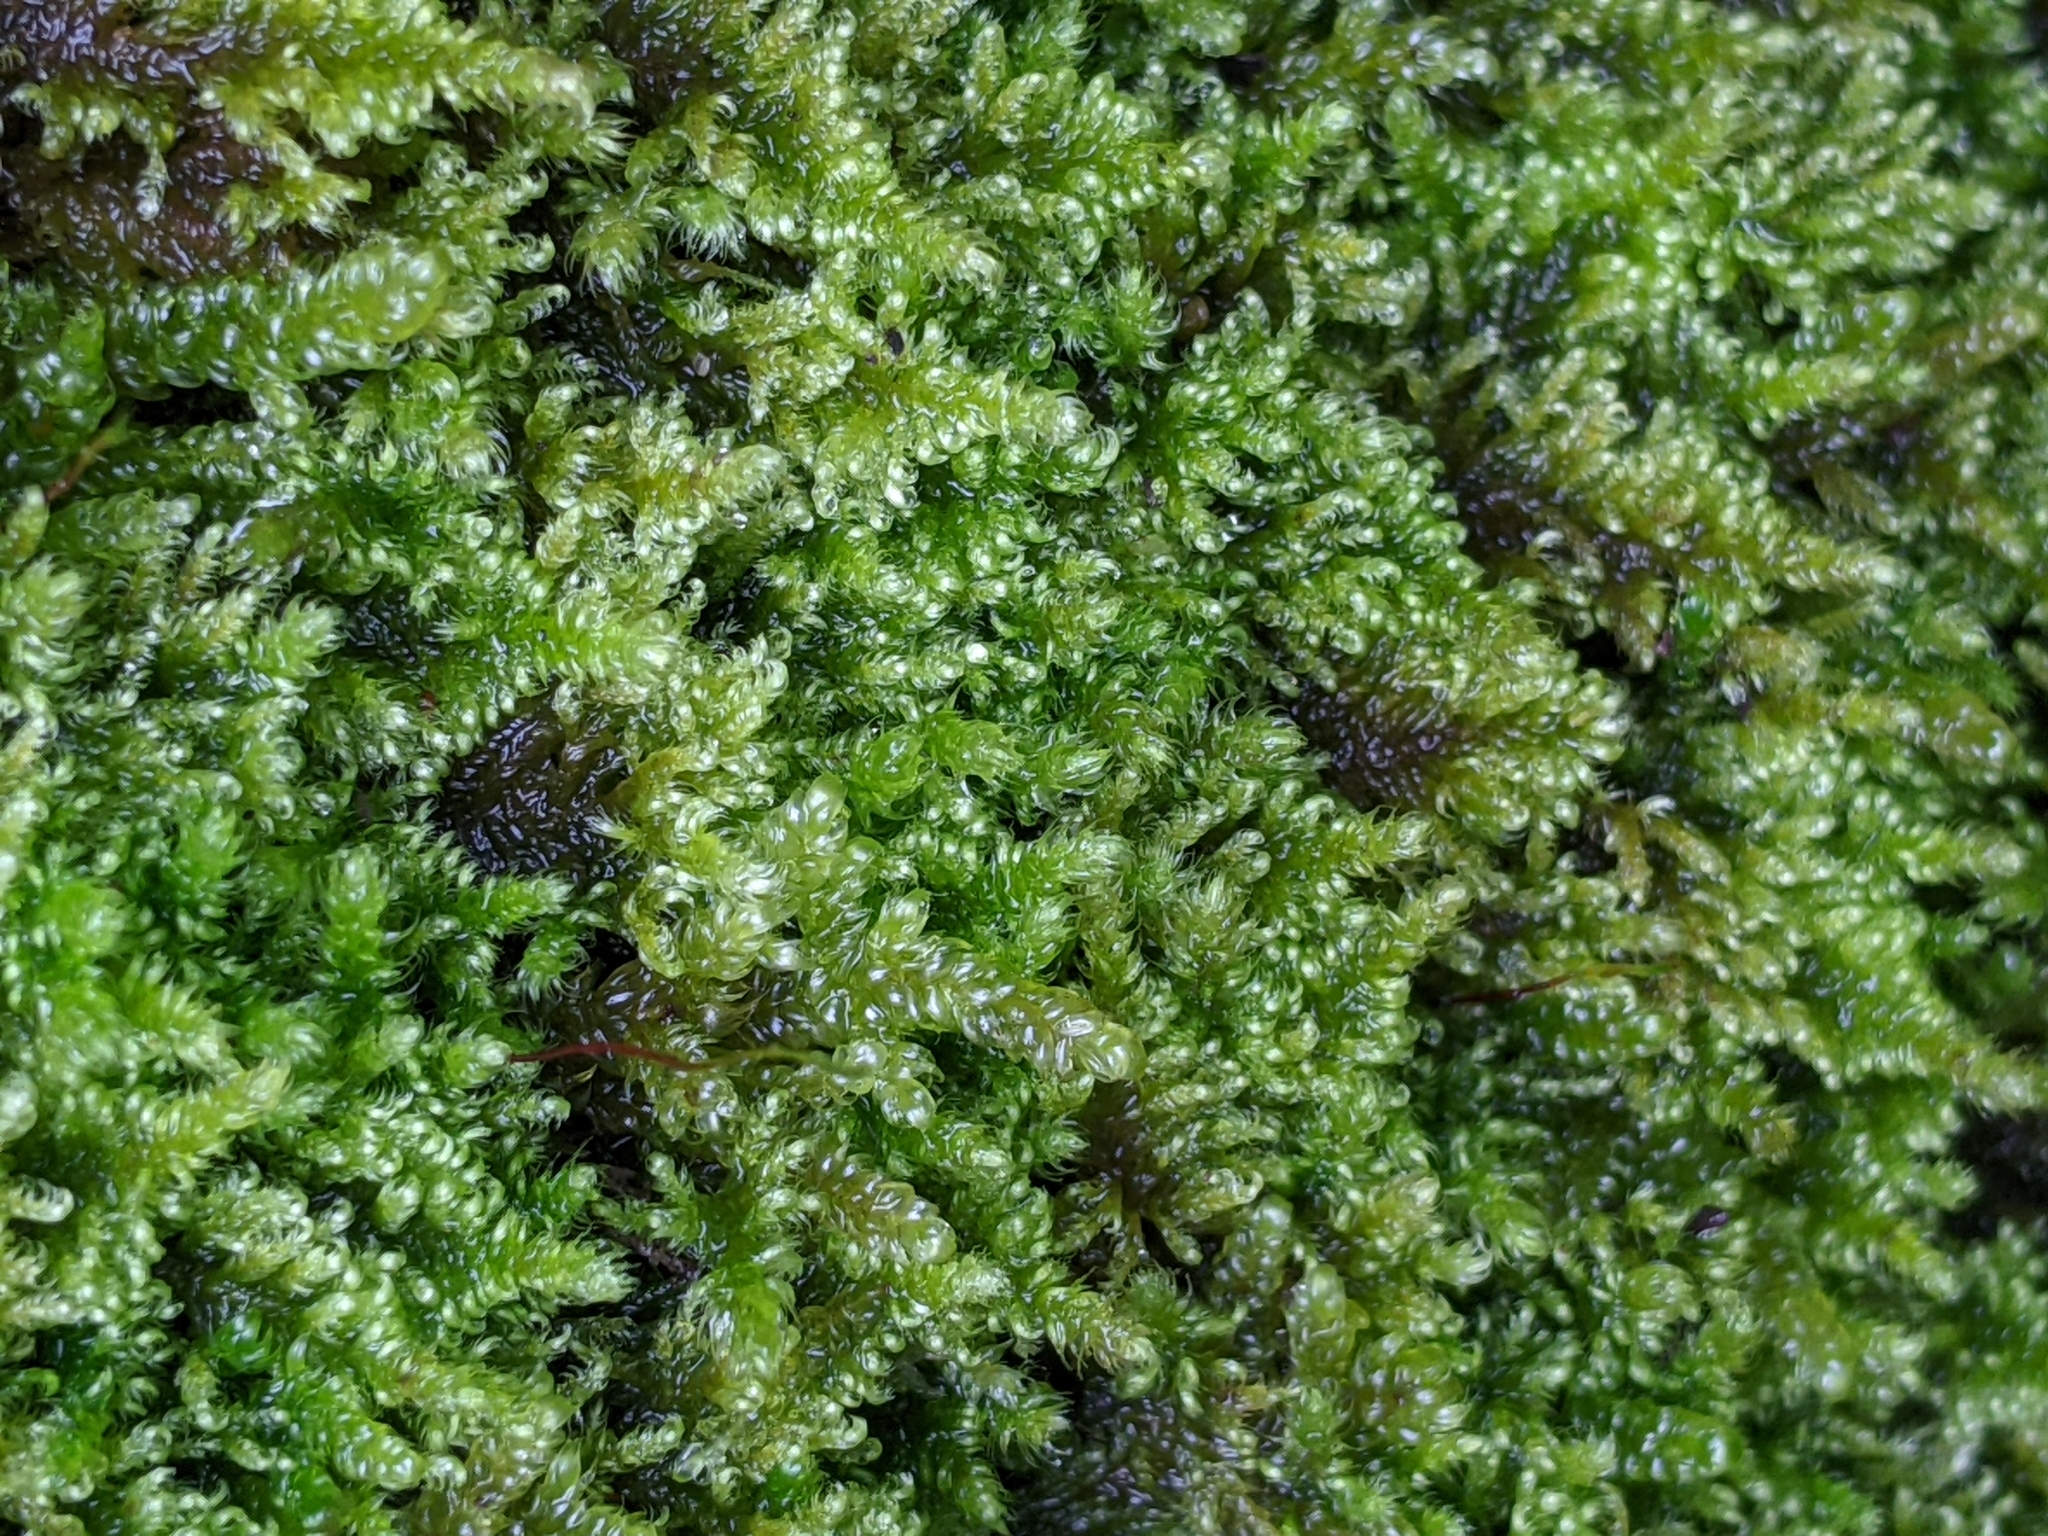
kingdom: Plantae
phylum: Bryophyta
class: Bryopsida
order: Hypnales
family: Myuriaceae
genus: Ctenidium
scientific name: Ctenidium molluscum
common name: Chalk comb-moss
